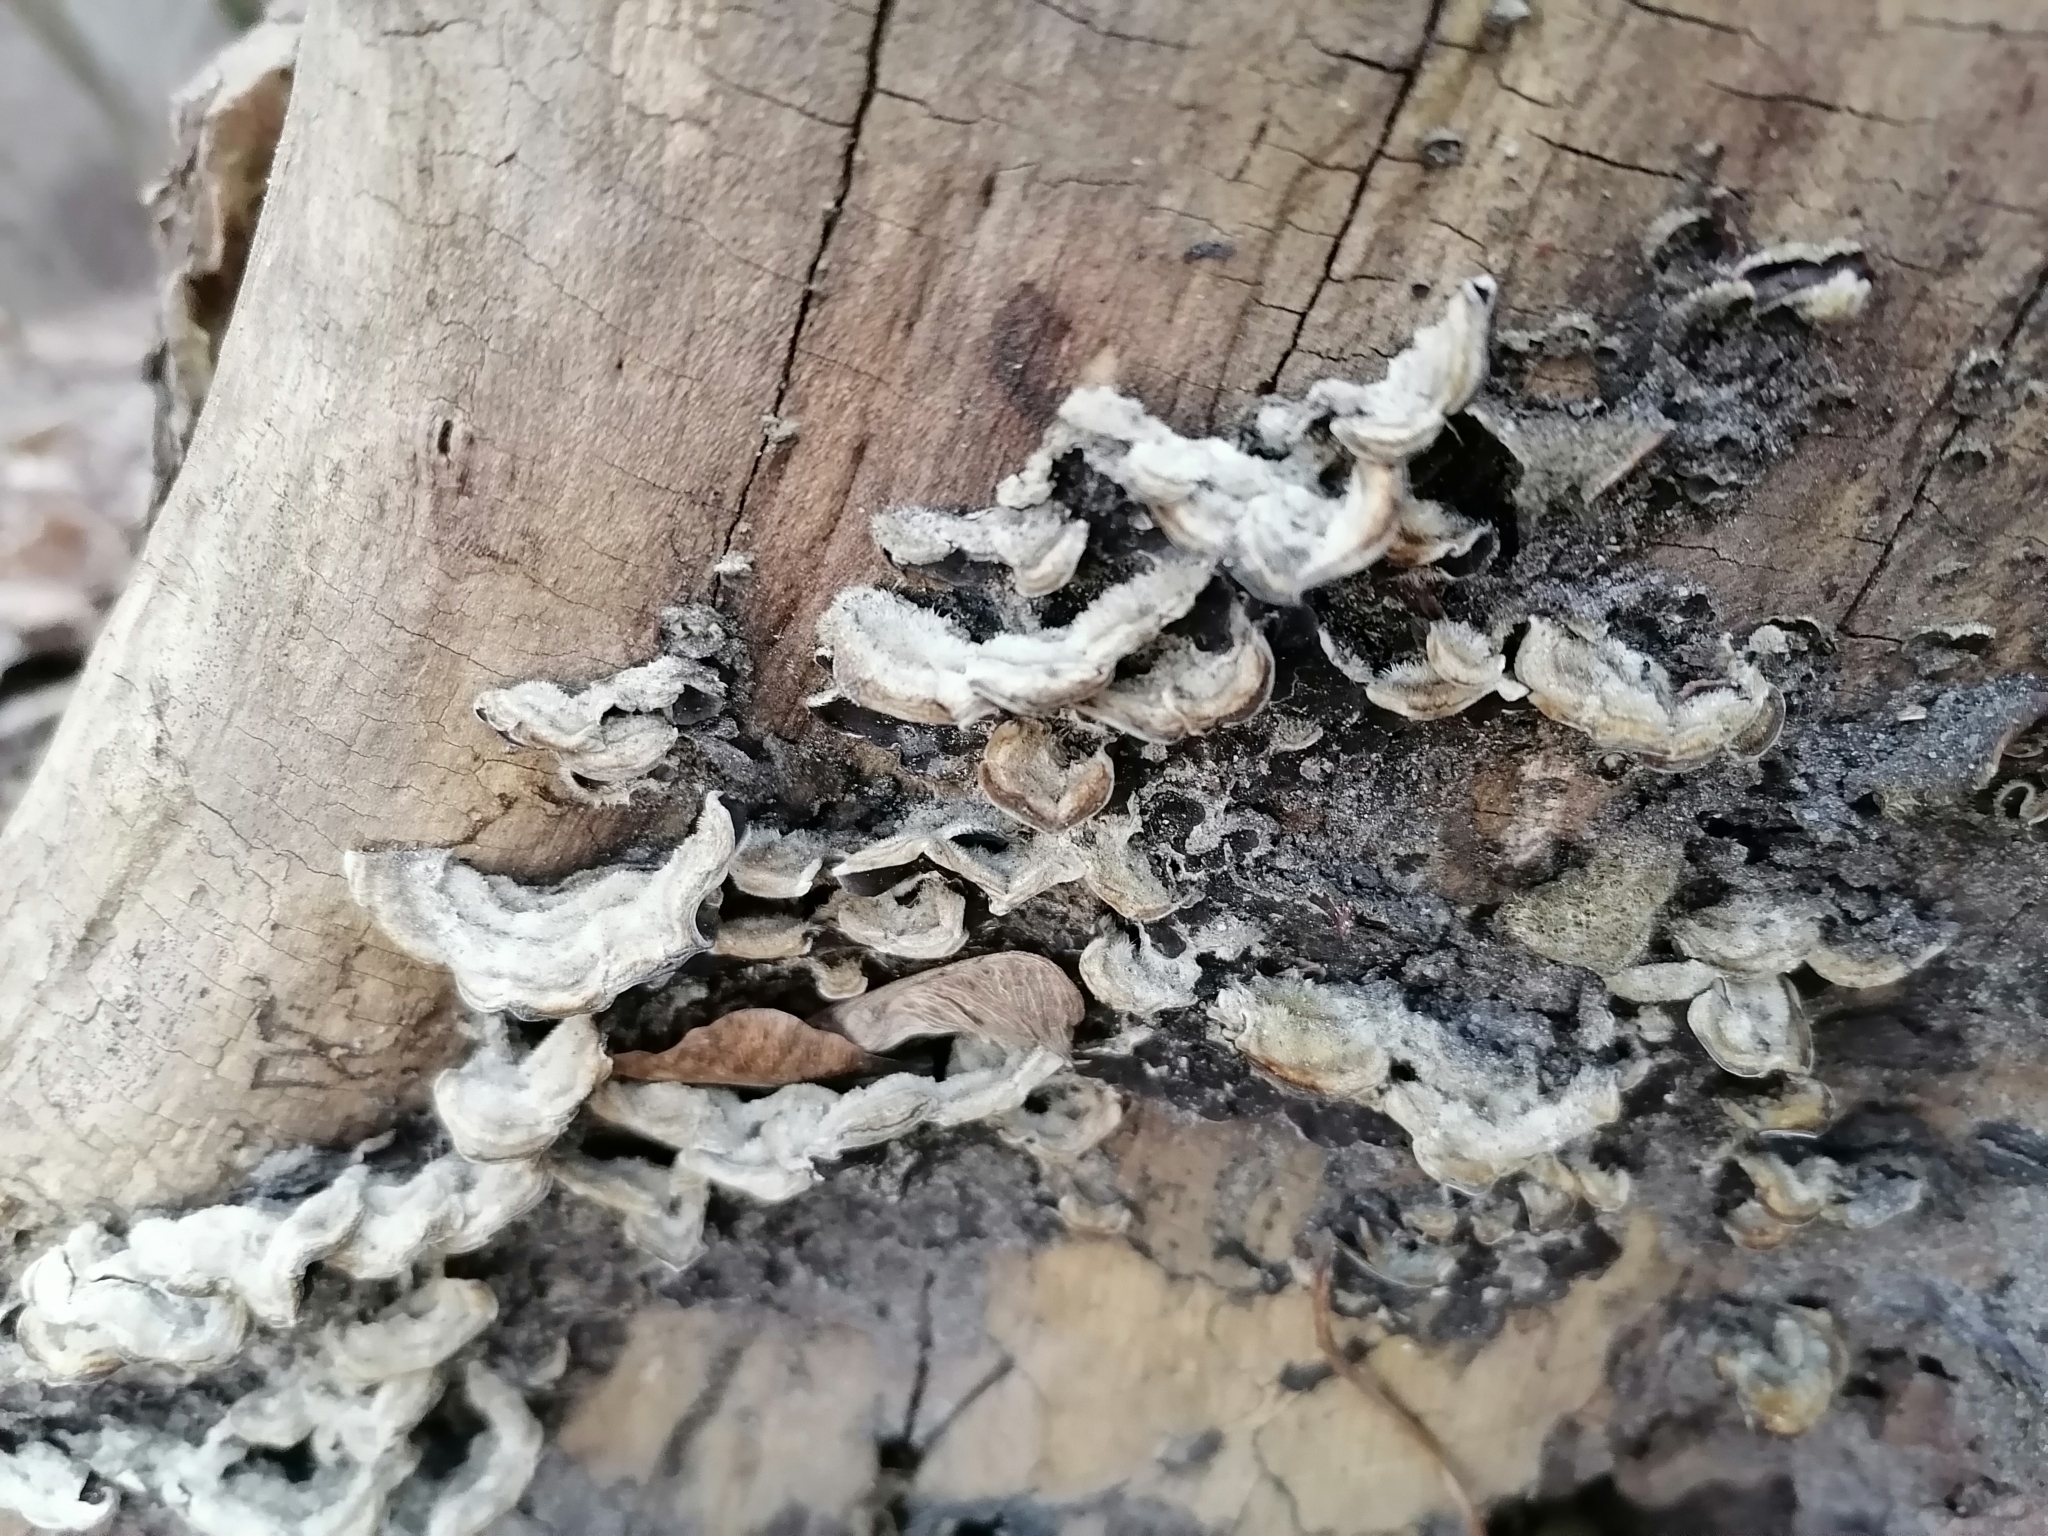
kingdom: Fungi
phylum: Basidiomycota
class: Agaricomycetes
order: Auriculariales
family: Auriculariaceae
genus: Auricularia
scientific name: Auricularia mesenterica
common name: Tripe fungus
